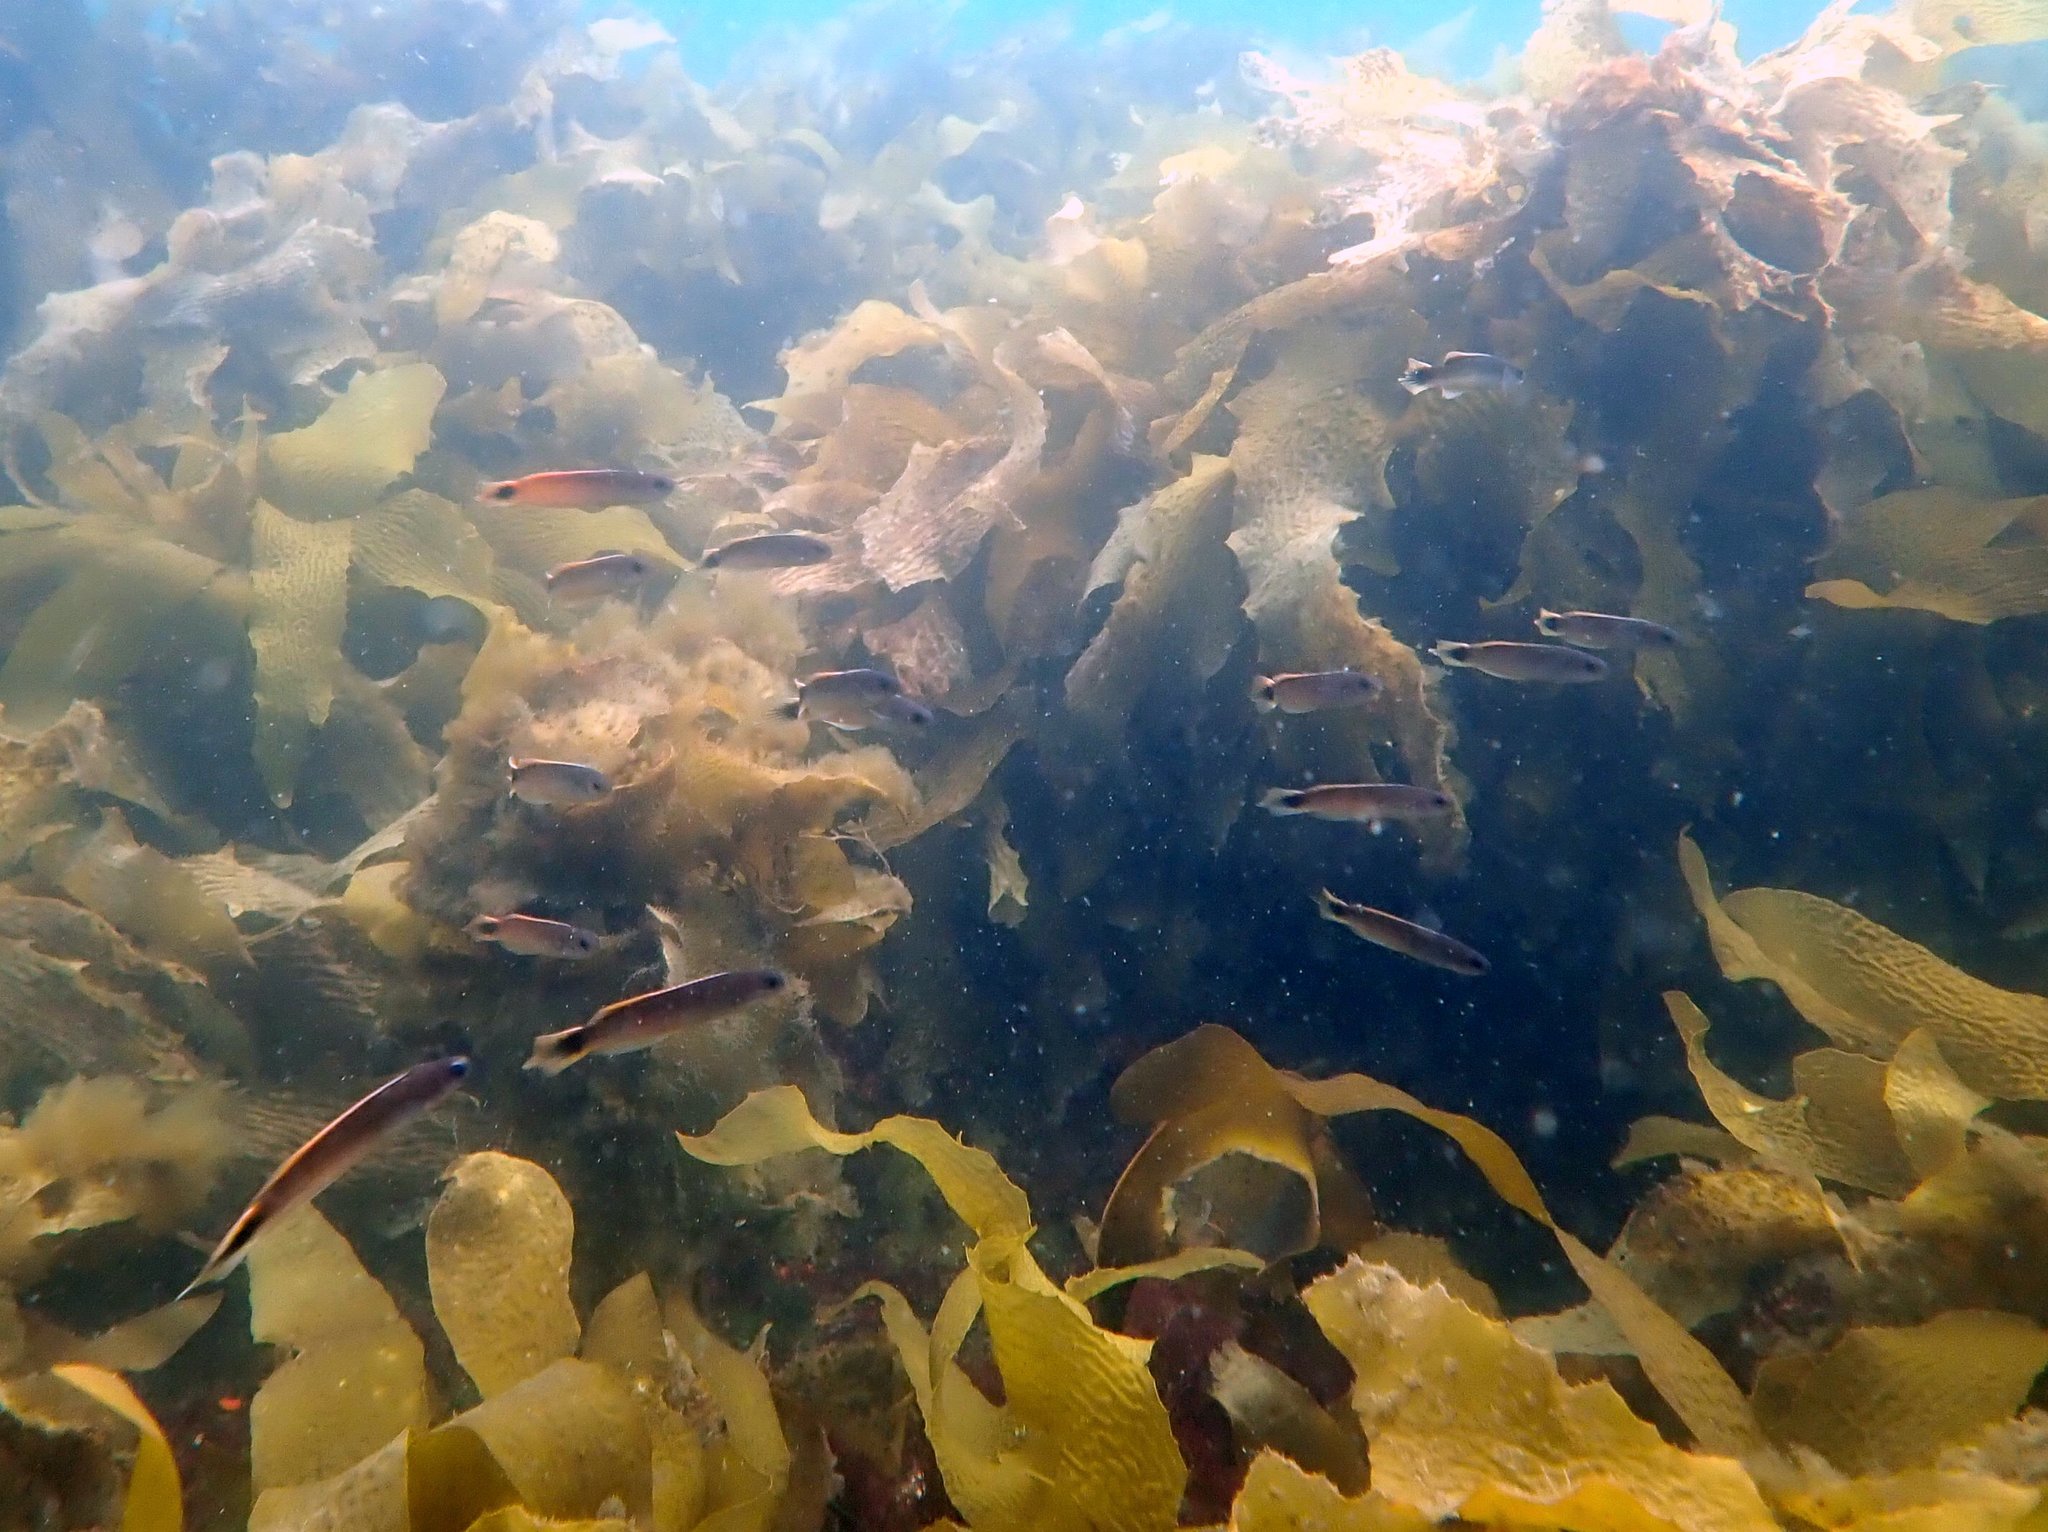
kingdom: Animalia
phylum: Chordata
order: Perciformes
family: Plesiopidae
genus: Trachinops
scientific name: Trachinops caudimaculatus
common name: Blotched-tailed trachinops
